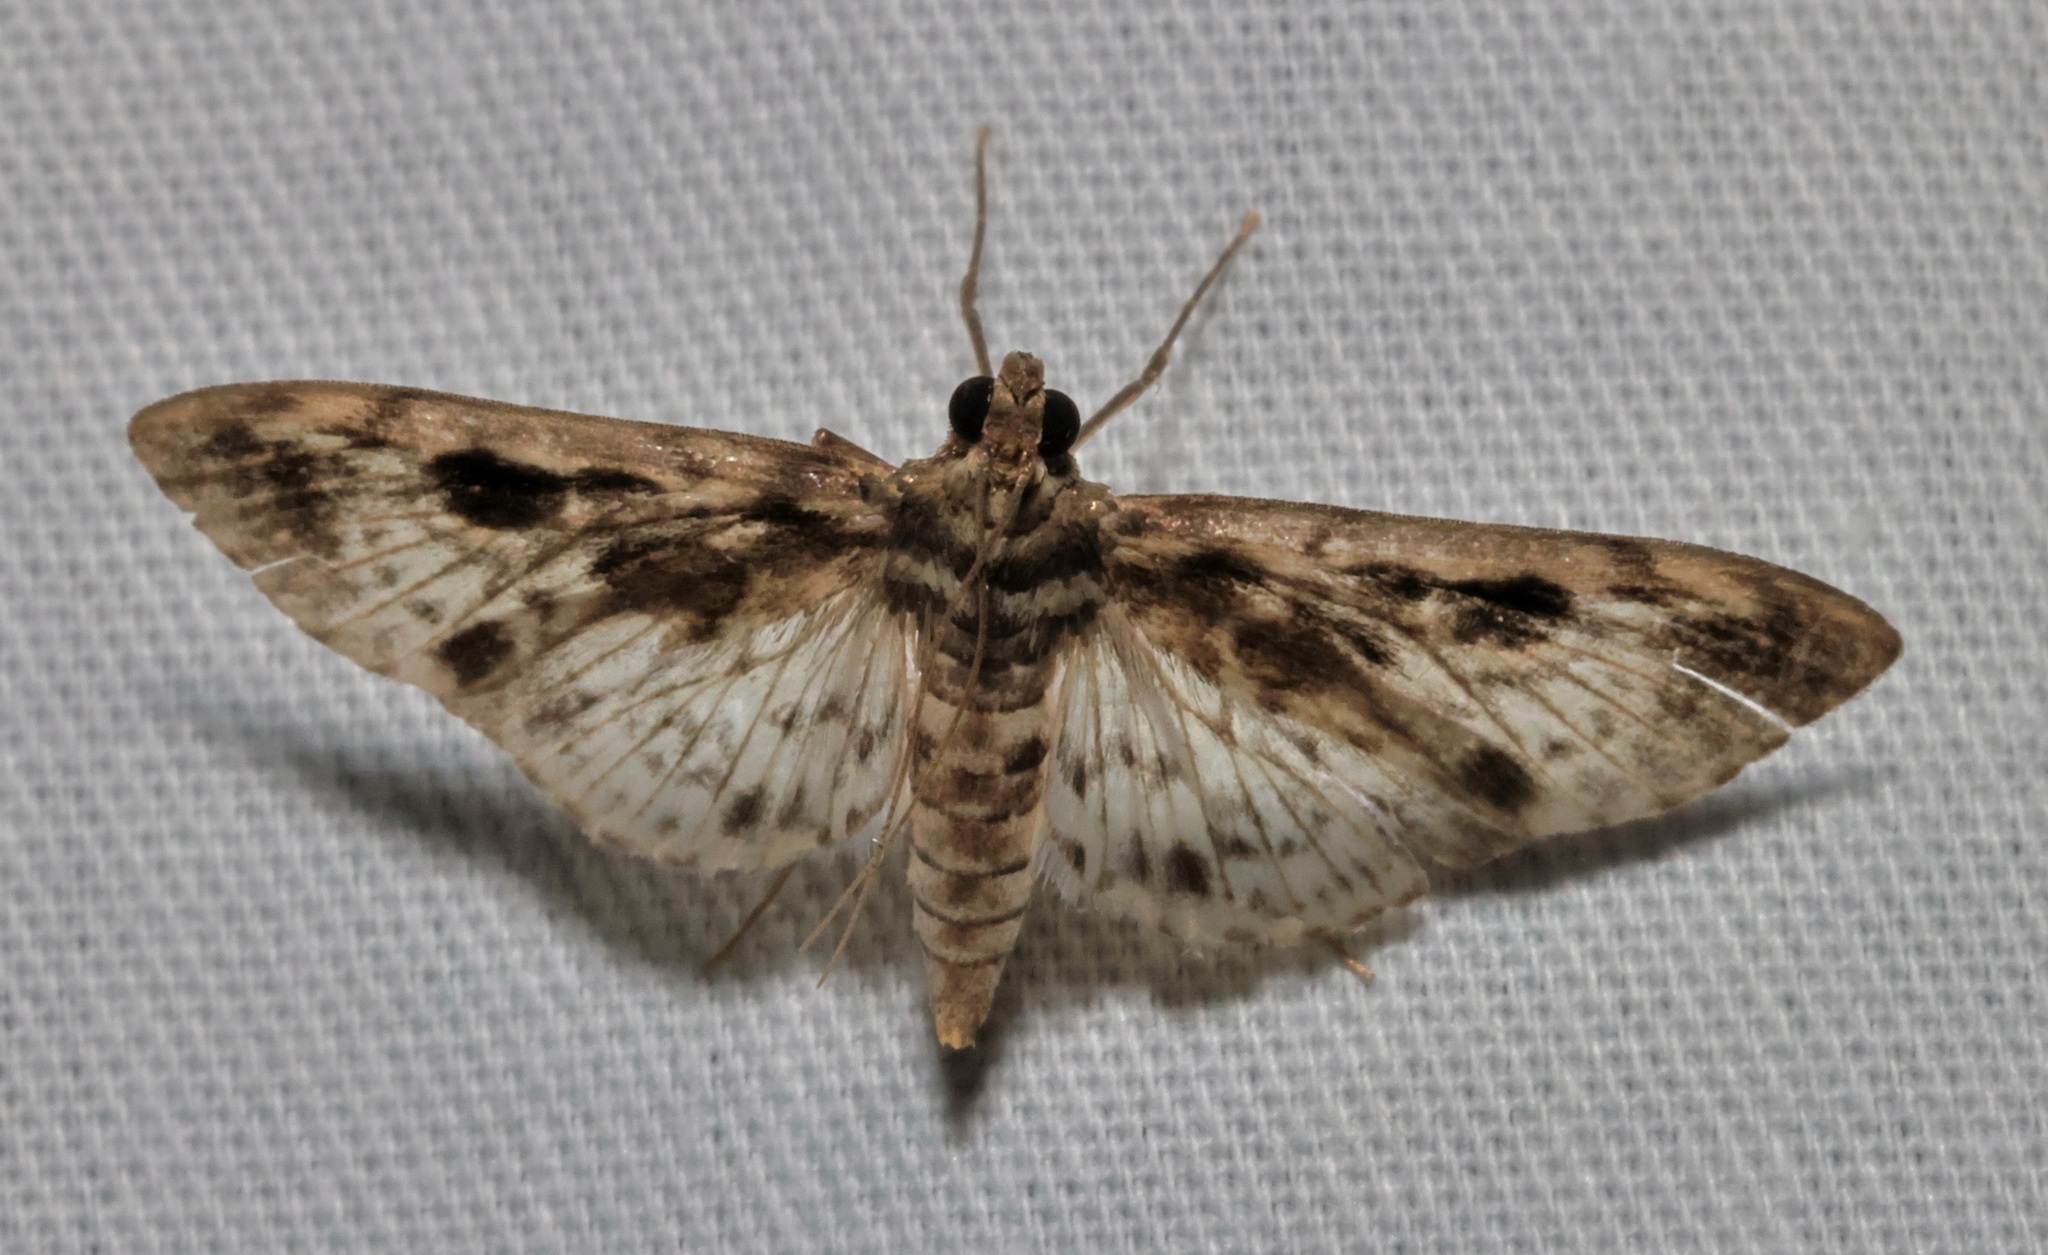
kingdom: Animalia
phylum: Arthropoda
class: Insecta
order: Lepidoptera
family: Crambidae
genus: Rhimphaliodes
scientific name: Rhimphaliodes macrostigma
